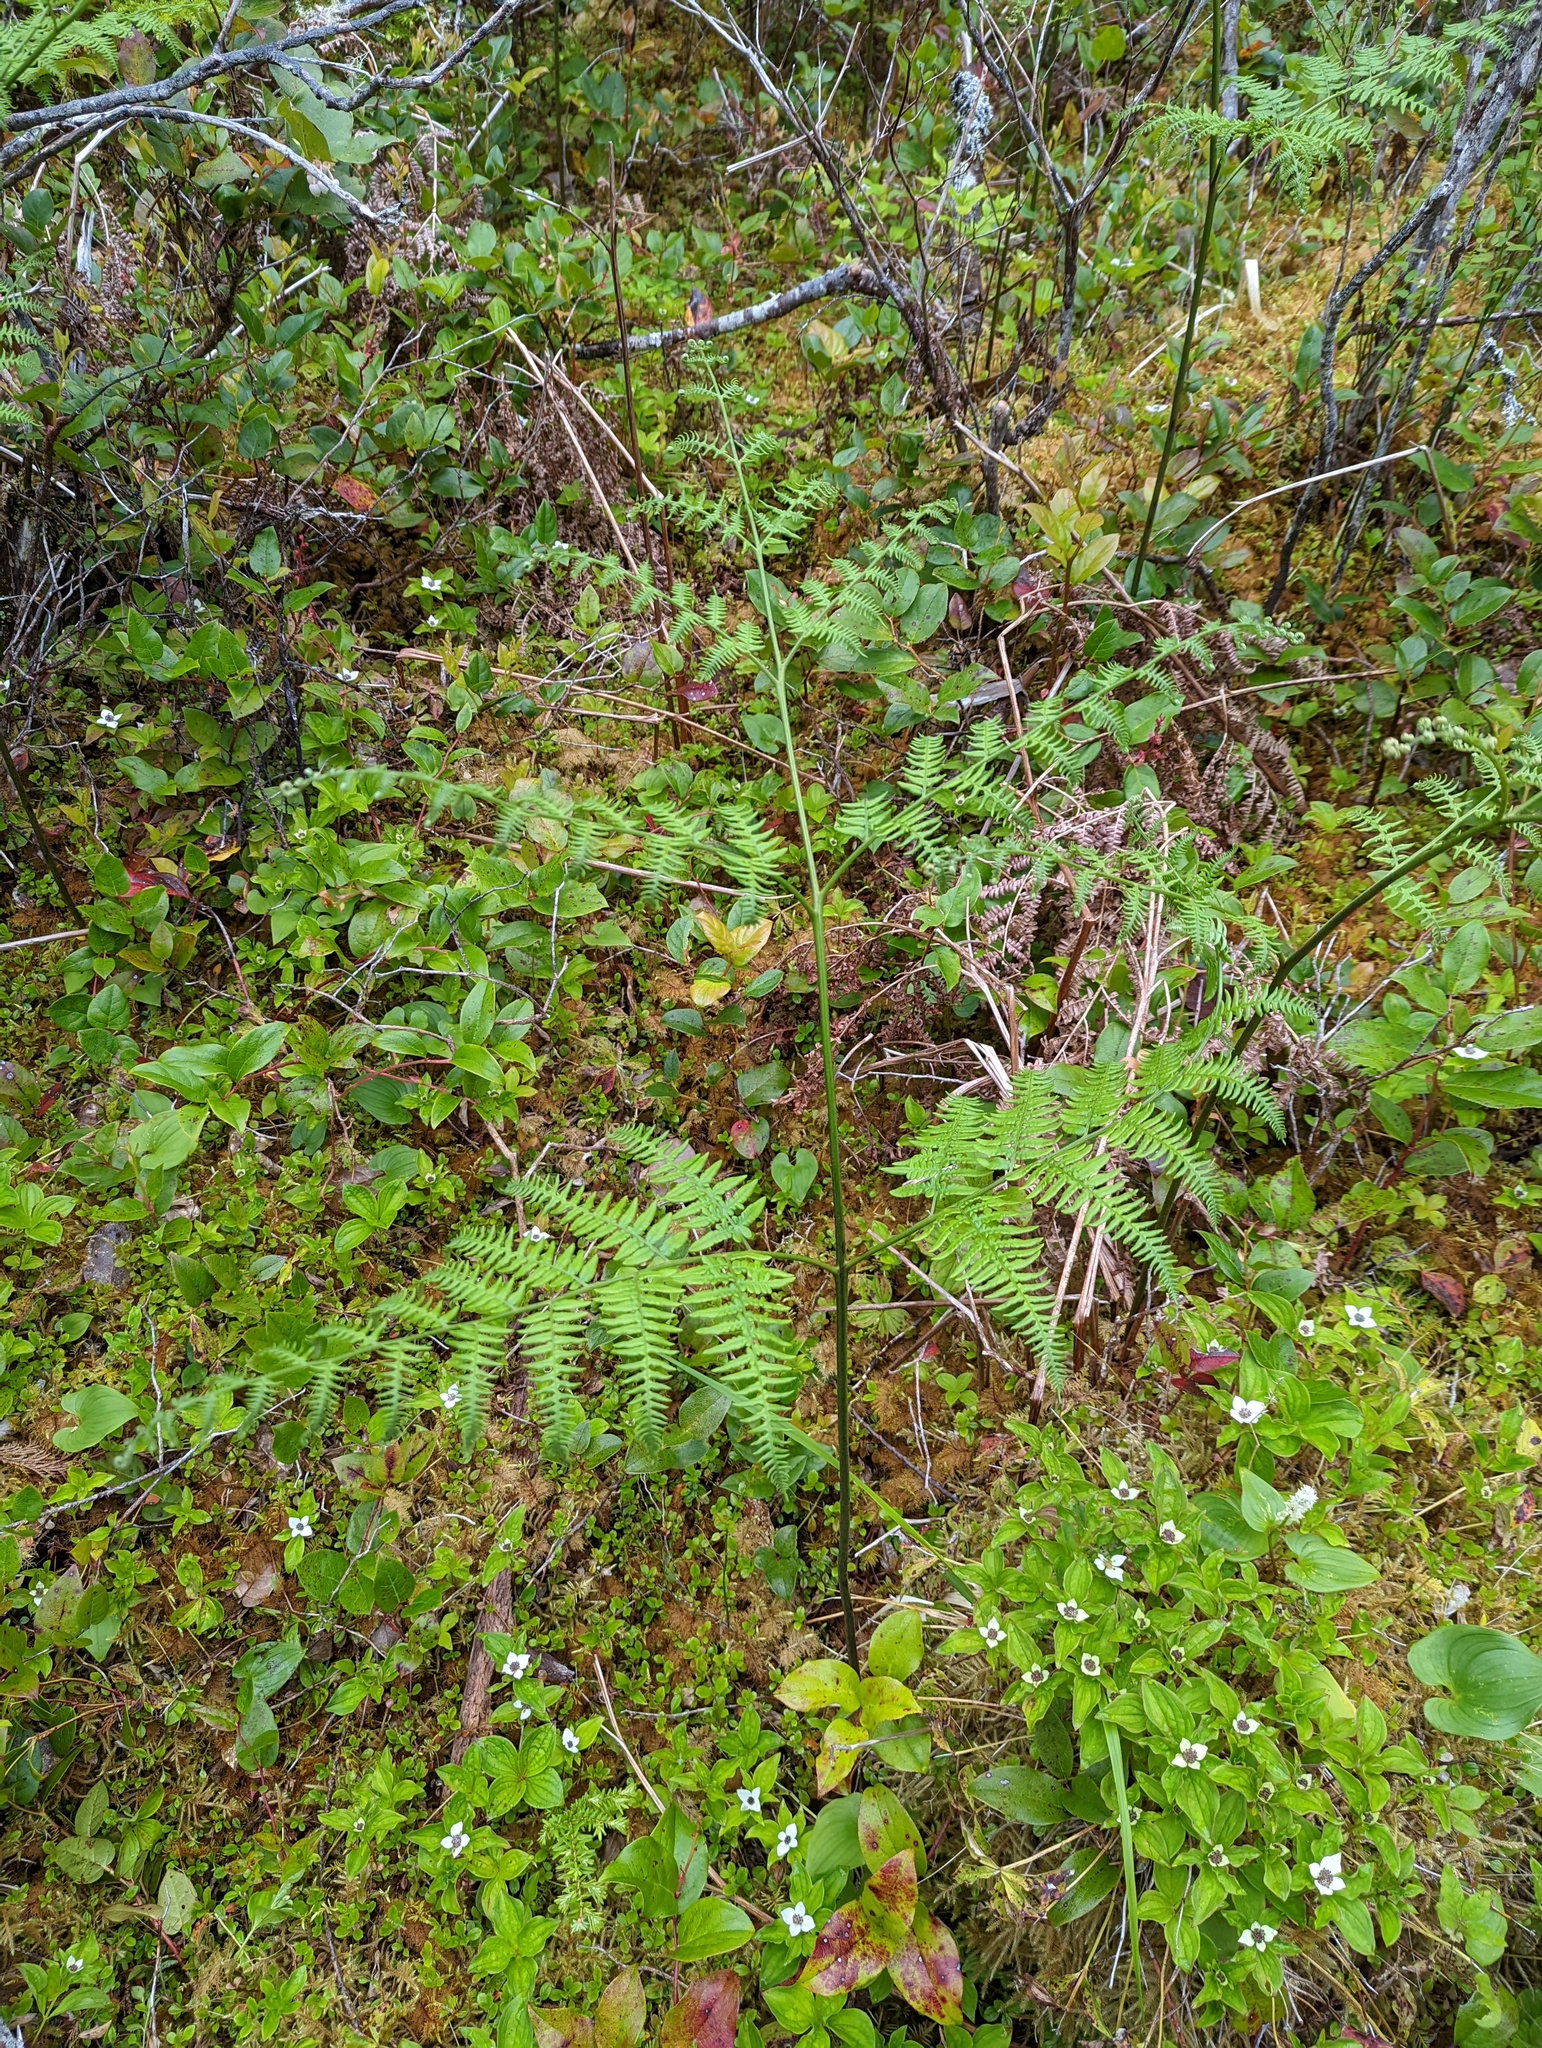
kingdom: Plantae
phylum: Tracheophyta
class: Polypodiopsida
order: Polypodiales
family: Dennstaedtiaceae
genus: Pteridium
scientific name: Pteridium aquilinum
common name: Bracken
